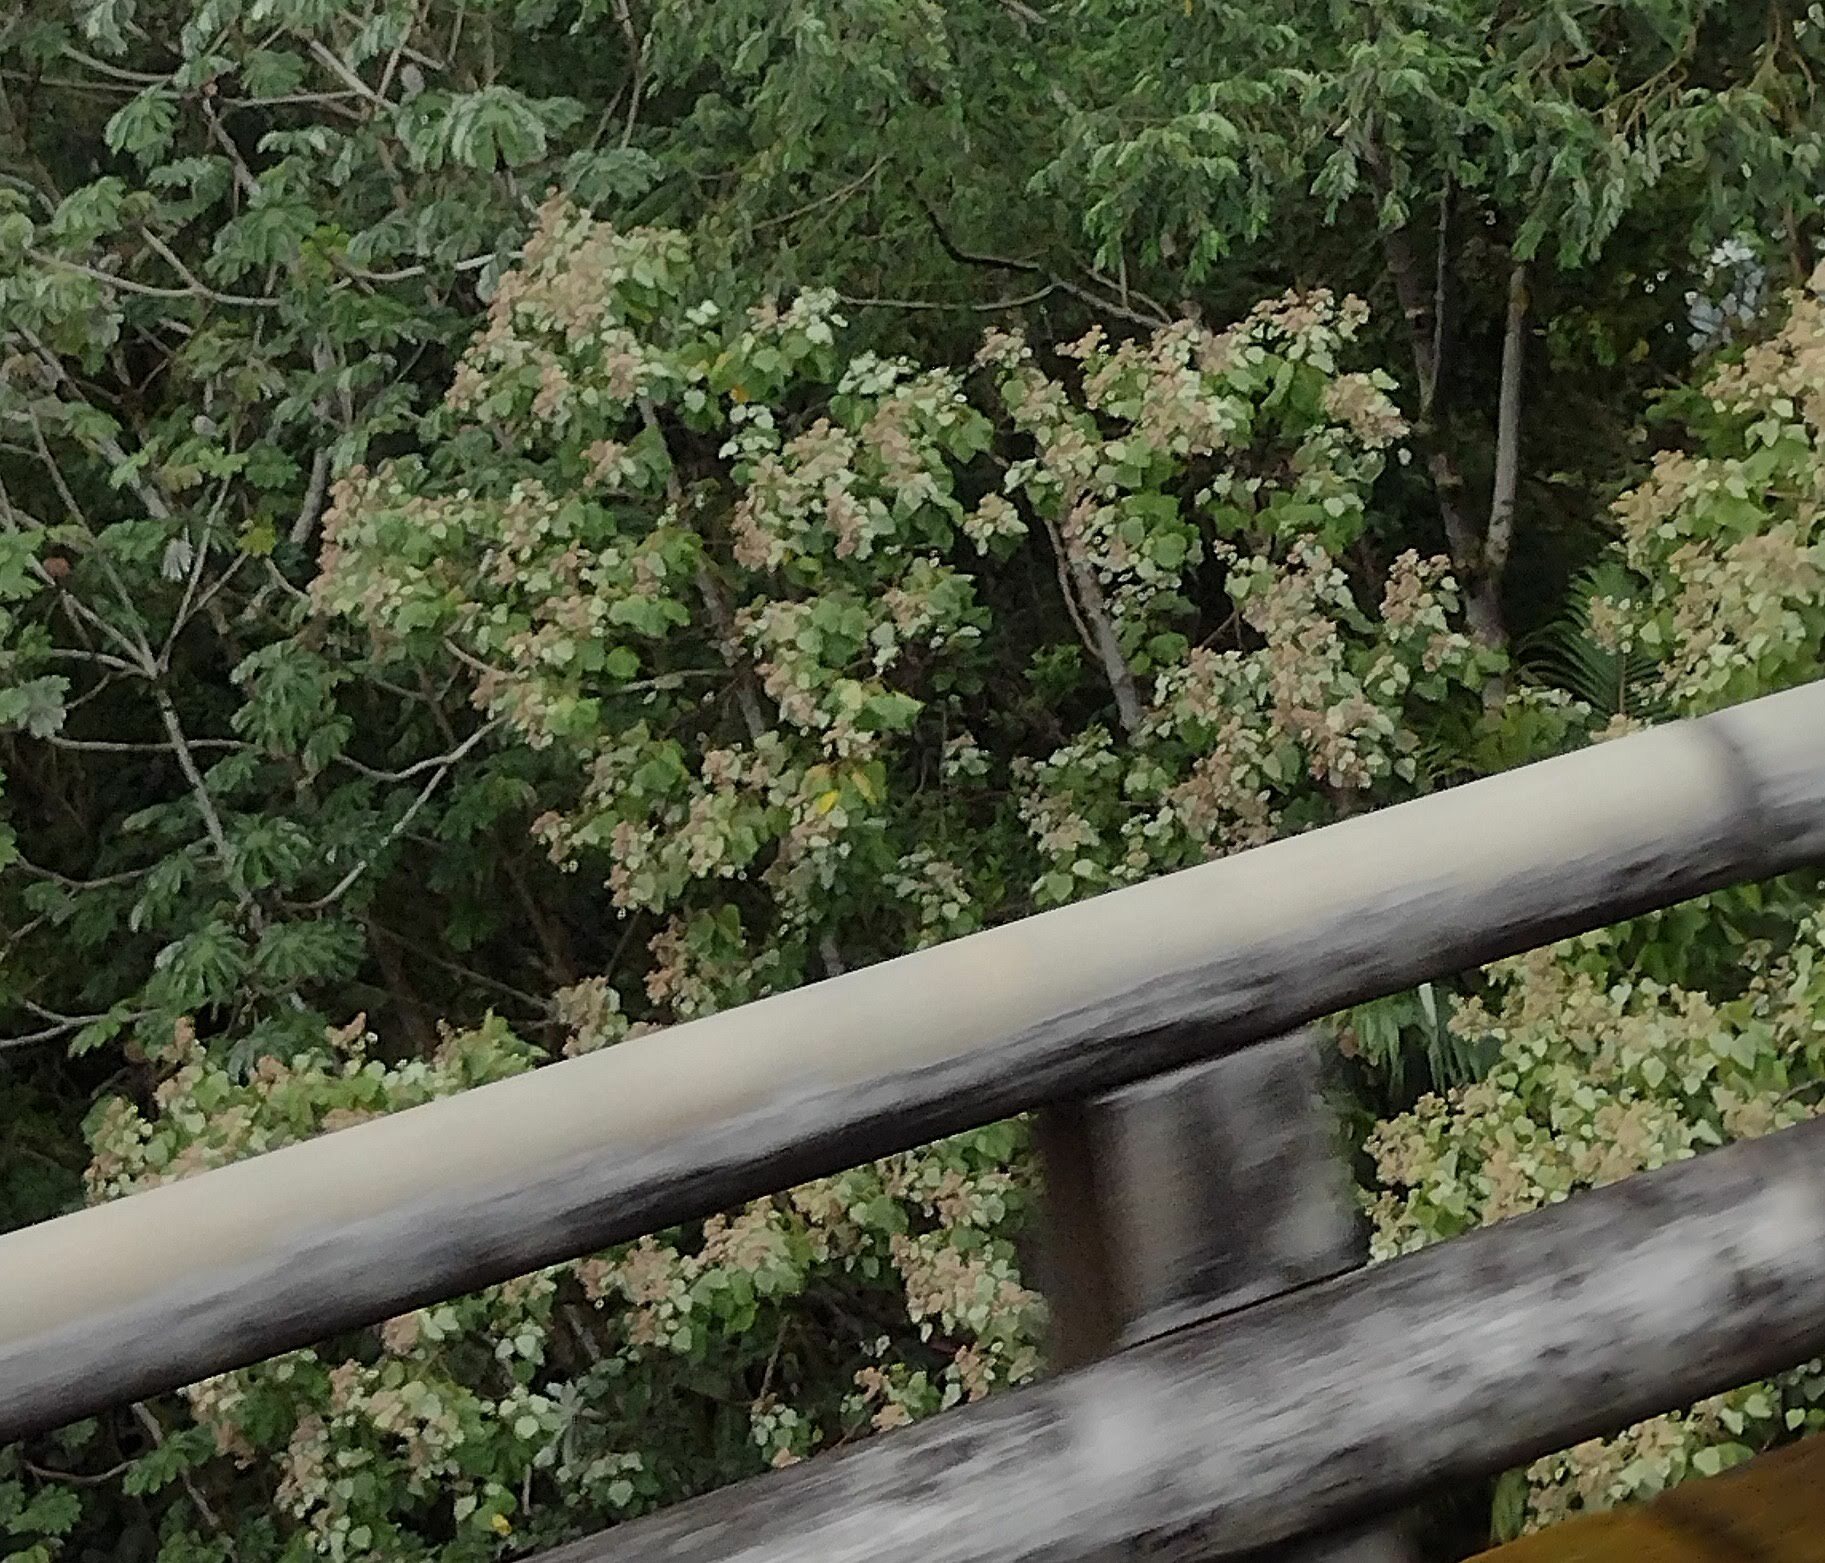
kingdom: Plantae
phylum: Tracheophyta
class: Magnoliopsida
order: Malvales
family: Malvaceae
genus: Melochia
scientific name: Melochia umbellata
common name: Gunpowder tree
